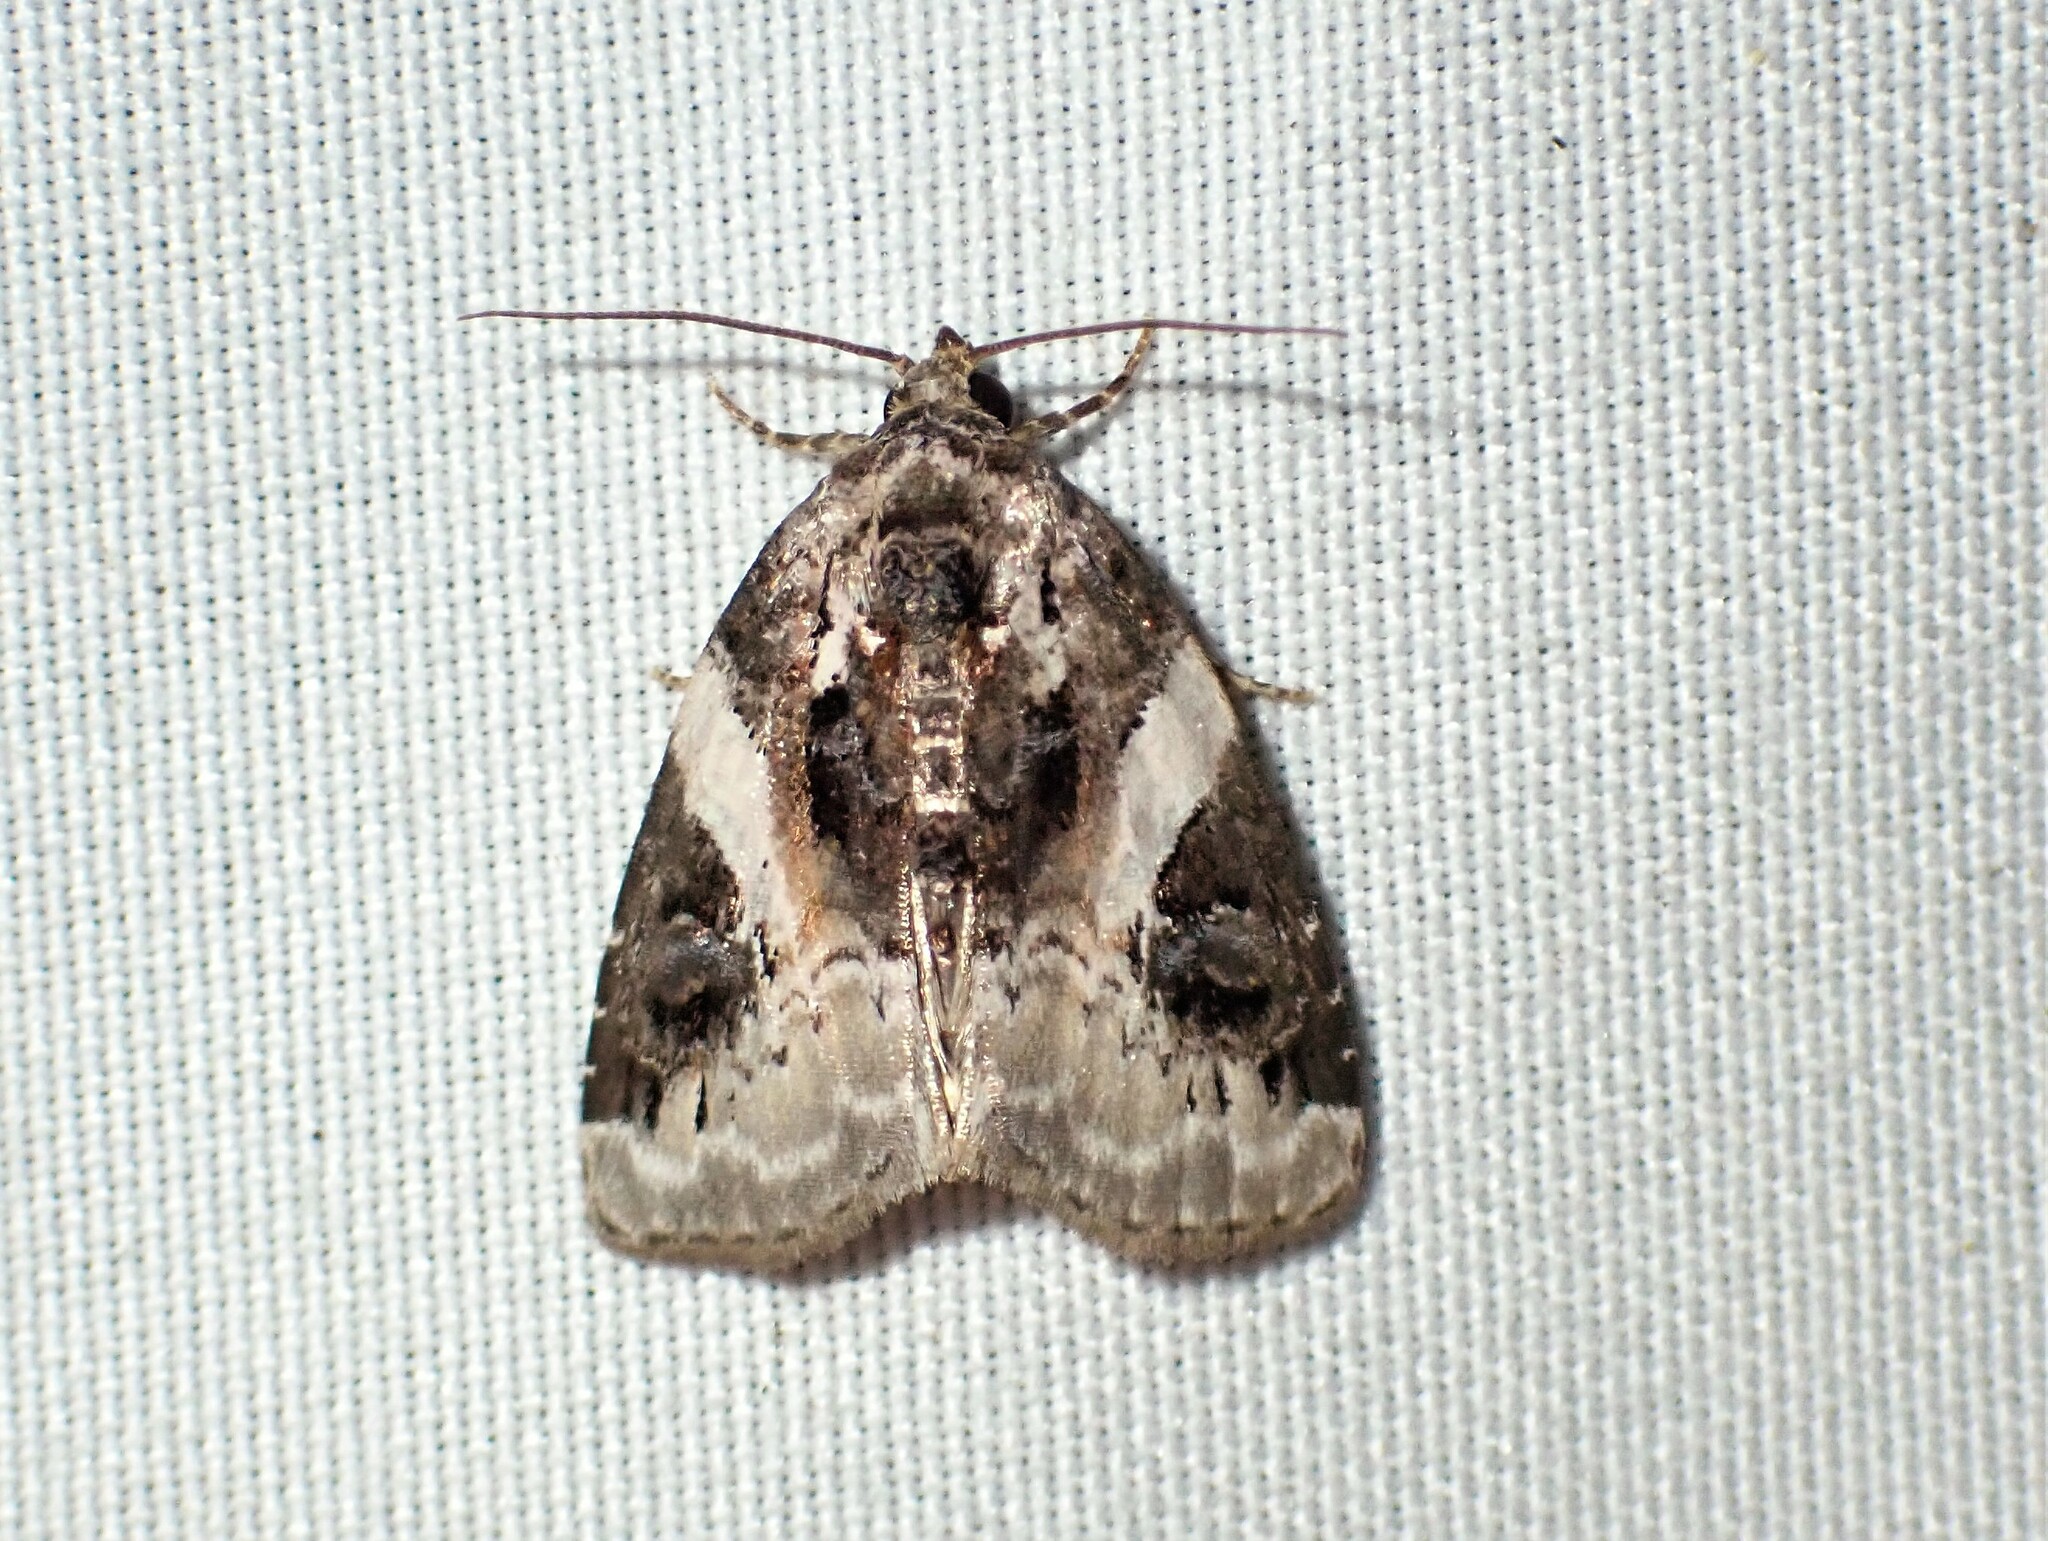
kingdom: Animalia
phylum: Arthropoda
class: Insecta
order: Lepidoptera
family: Noctuidae
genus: Pseudeustrotia
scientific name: Pseudeustrotia carneola
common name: Pink-barred lithacodia moth
